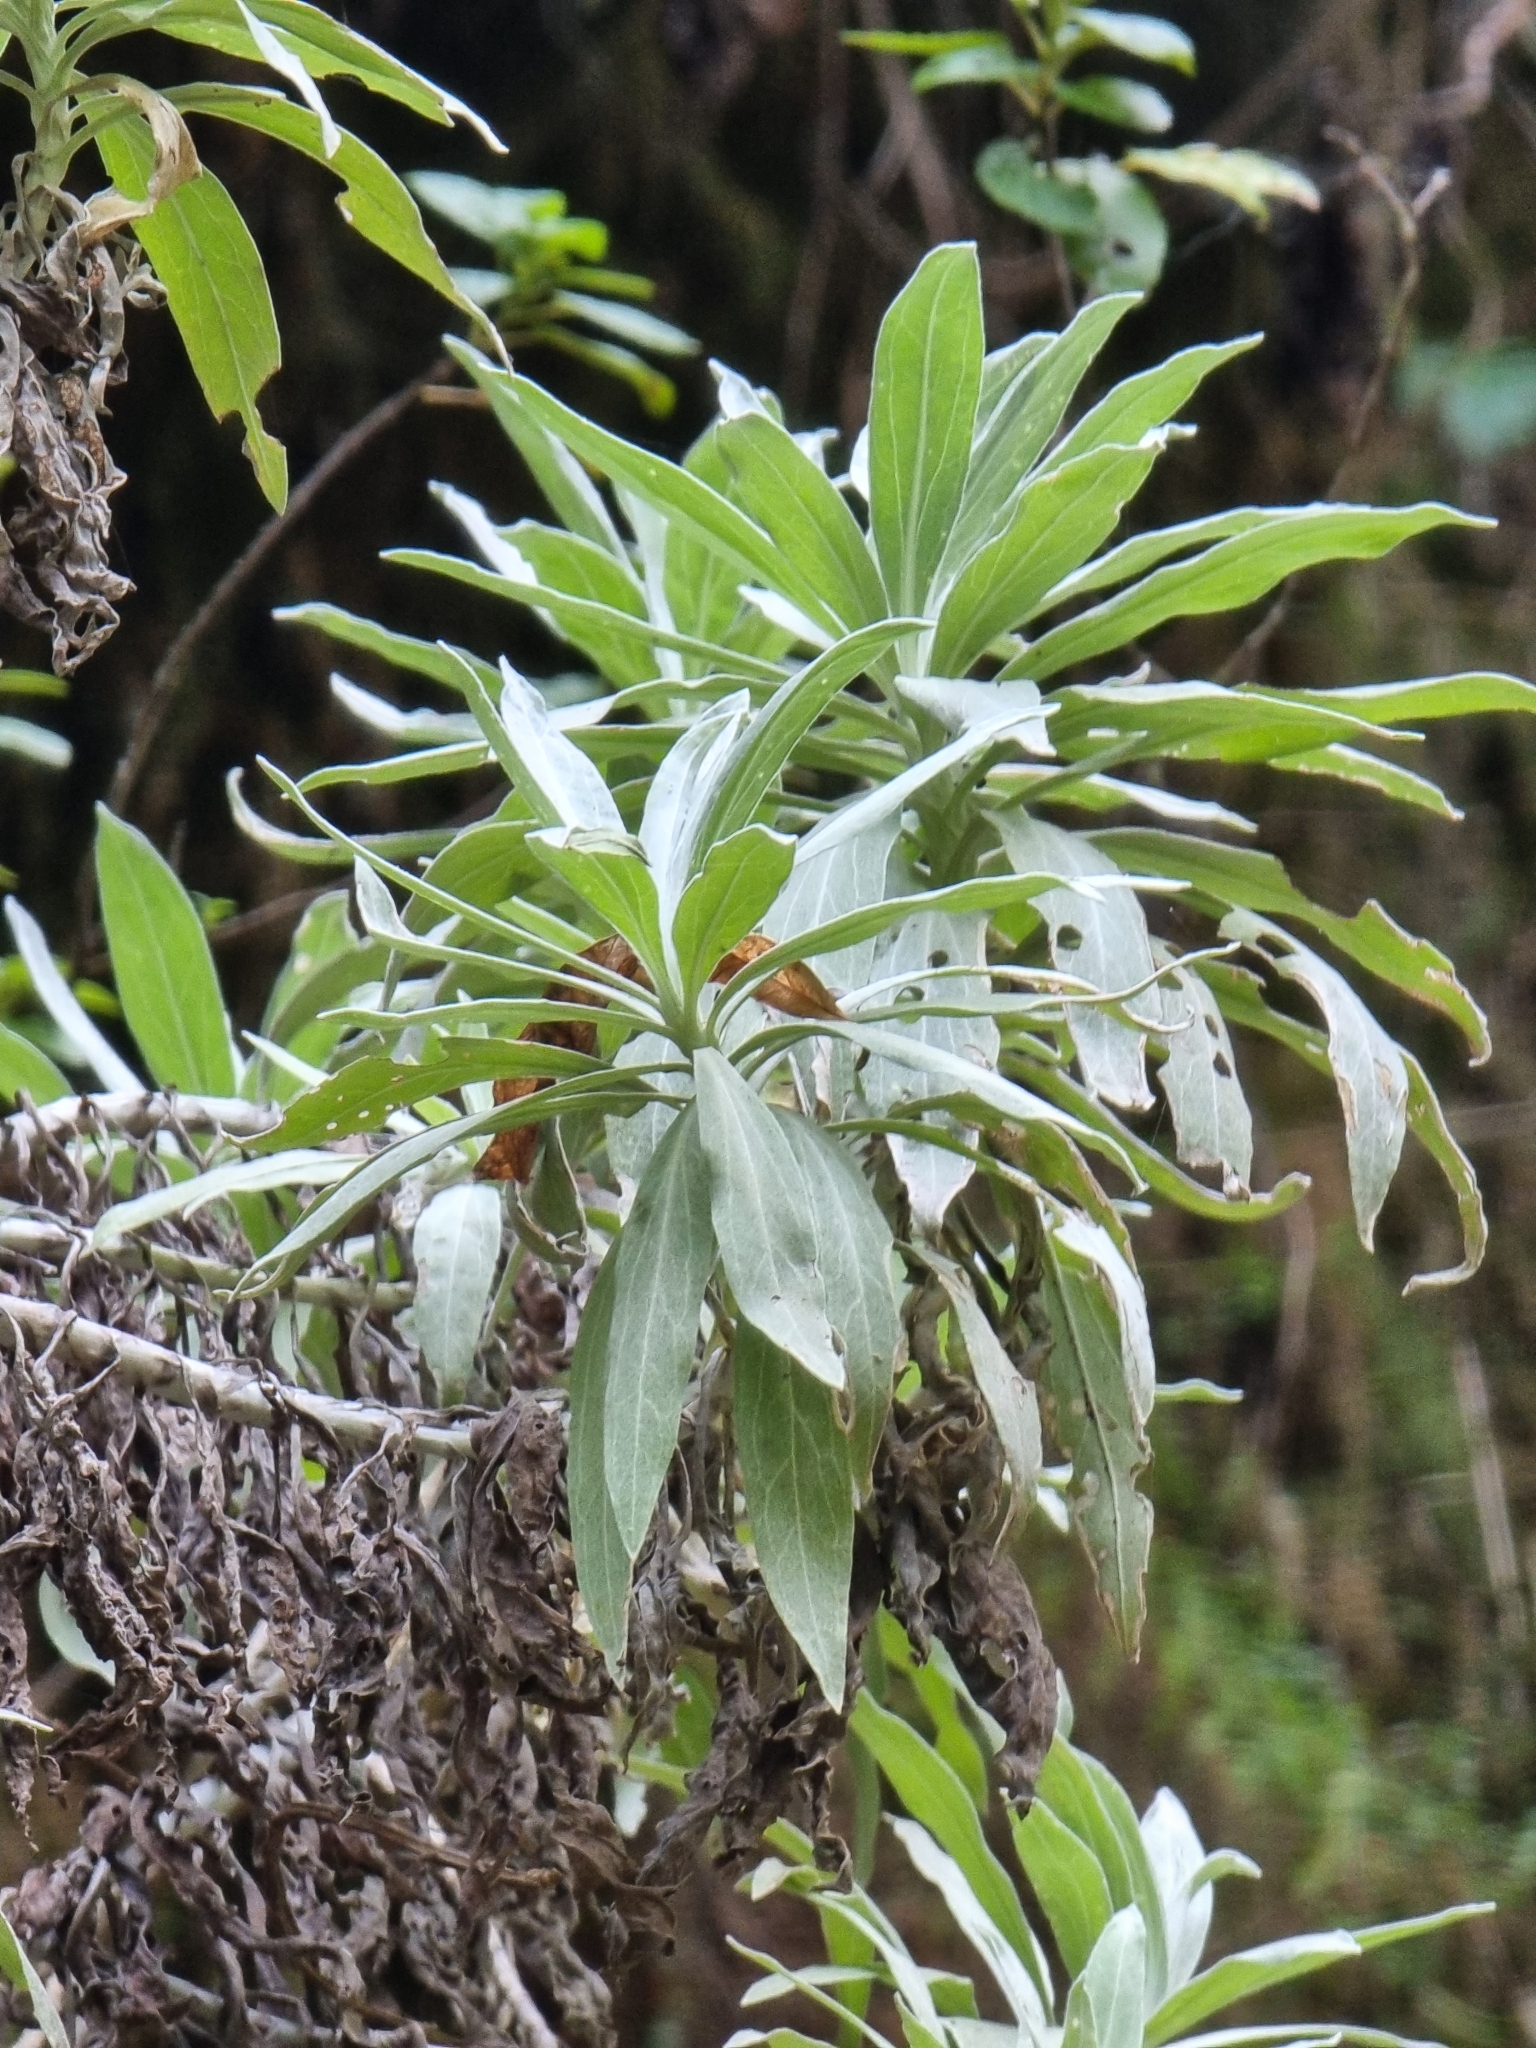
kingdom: Plantae
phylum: Tracheophyta
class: Magnoliopsida
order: Asterales
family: Asteraceae
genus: Helichrysum
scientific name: Helichrysum melaleucum
